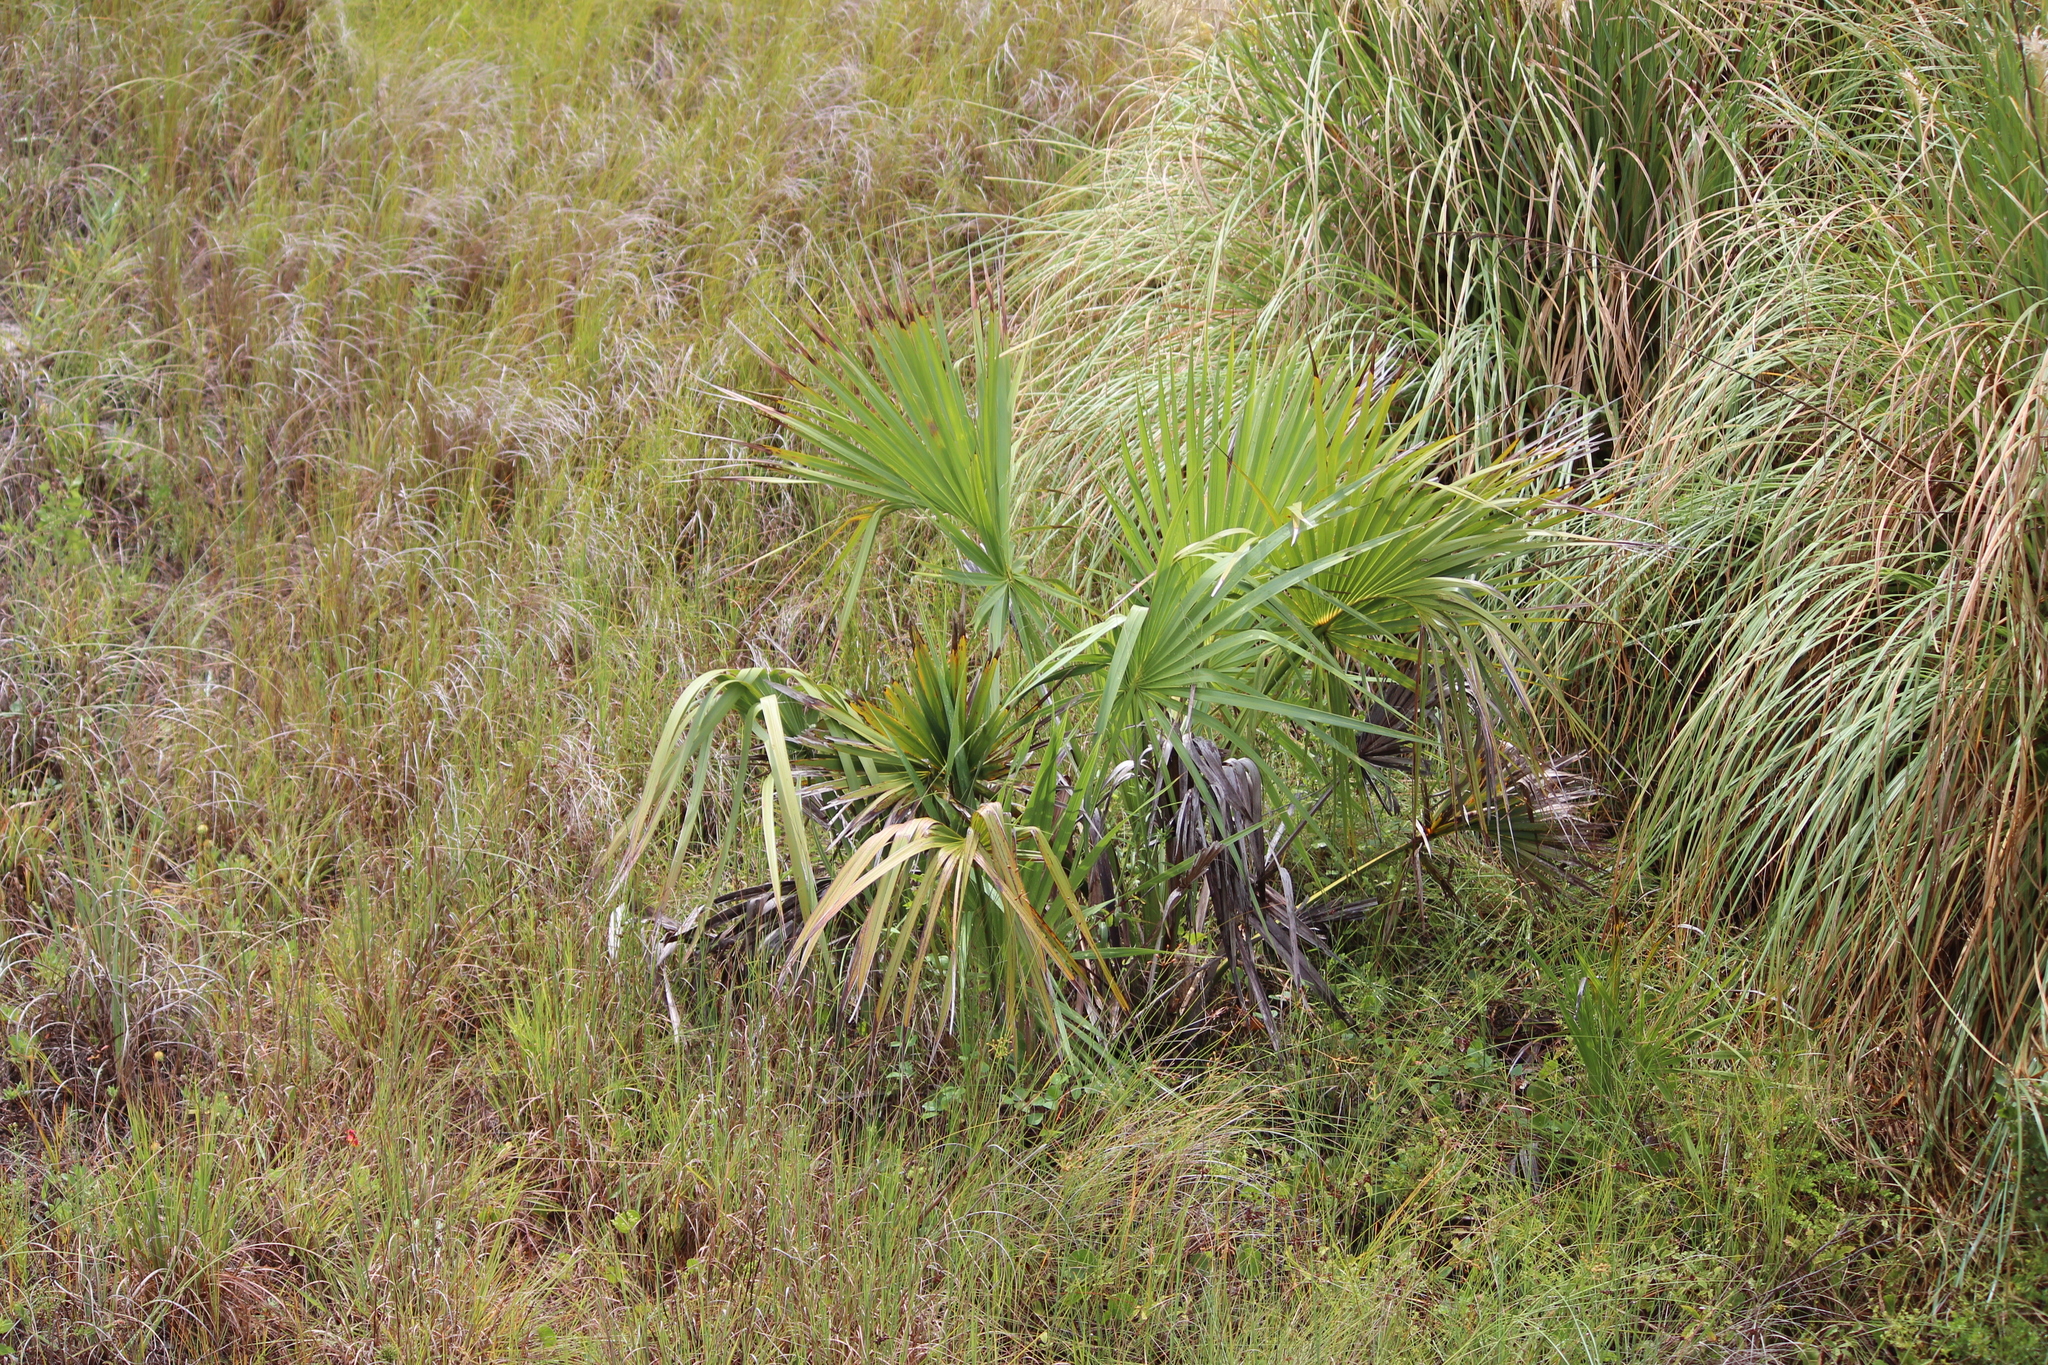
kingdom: Plantae
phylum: Tracheophyta
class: Liliopsida
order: Arecales
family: Arecaceae
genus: Sabal
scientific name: Sabal palmetto
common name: Blue palmetto
